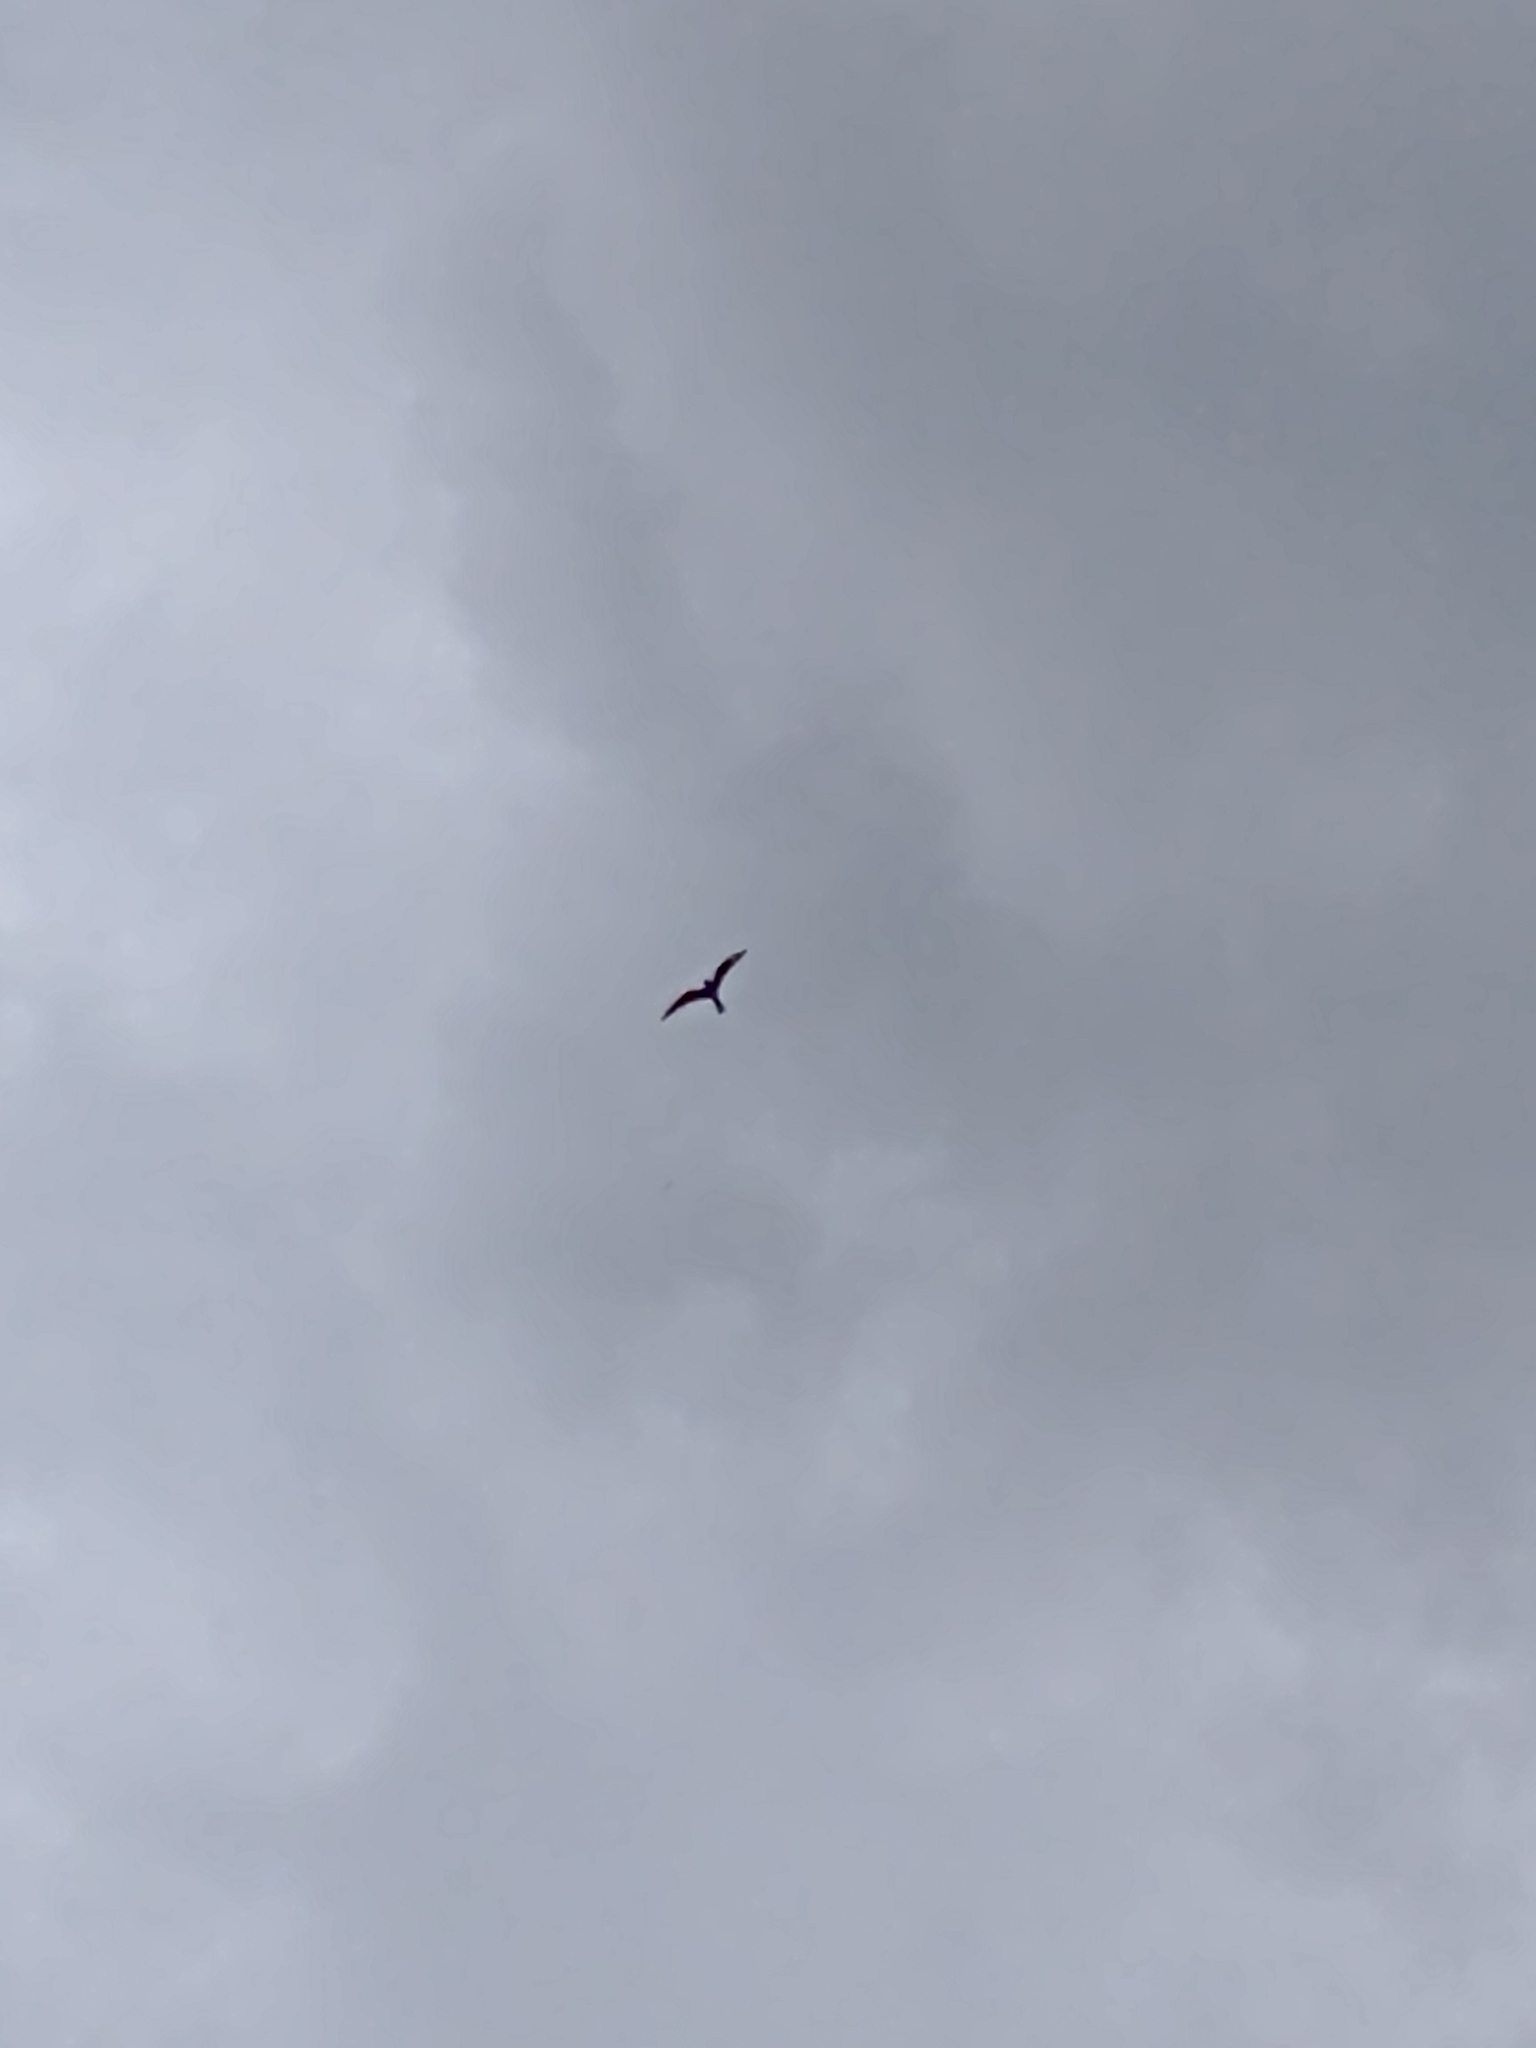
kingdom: Animalia
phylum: Chordata
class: Aves
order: Caprimulgiformes
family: Caprimulgidae
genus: Chordeiles
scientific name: Chordeiles minor
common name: Common nighthawk
